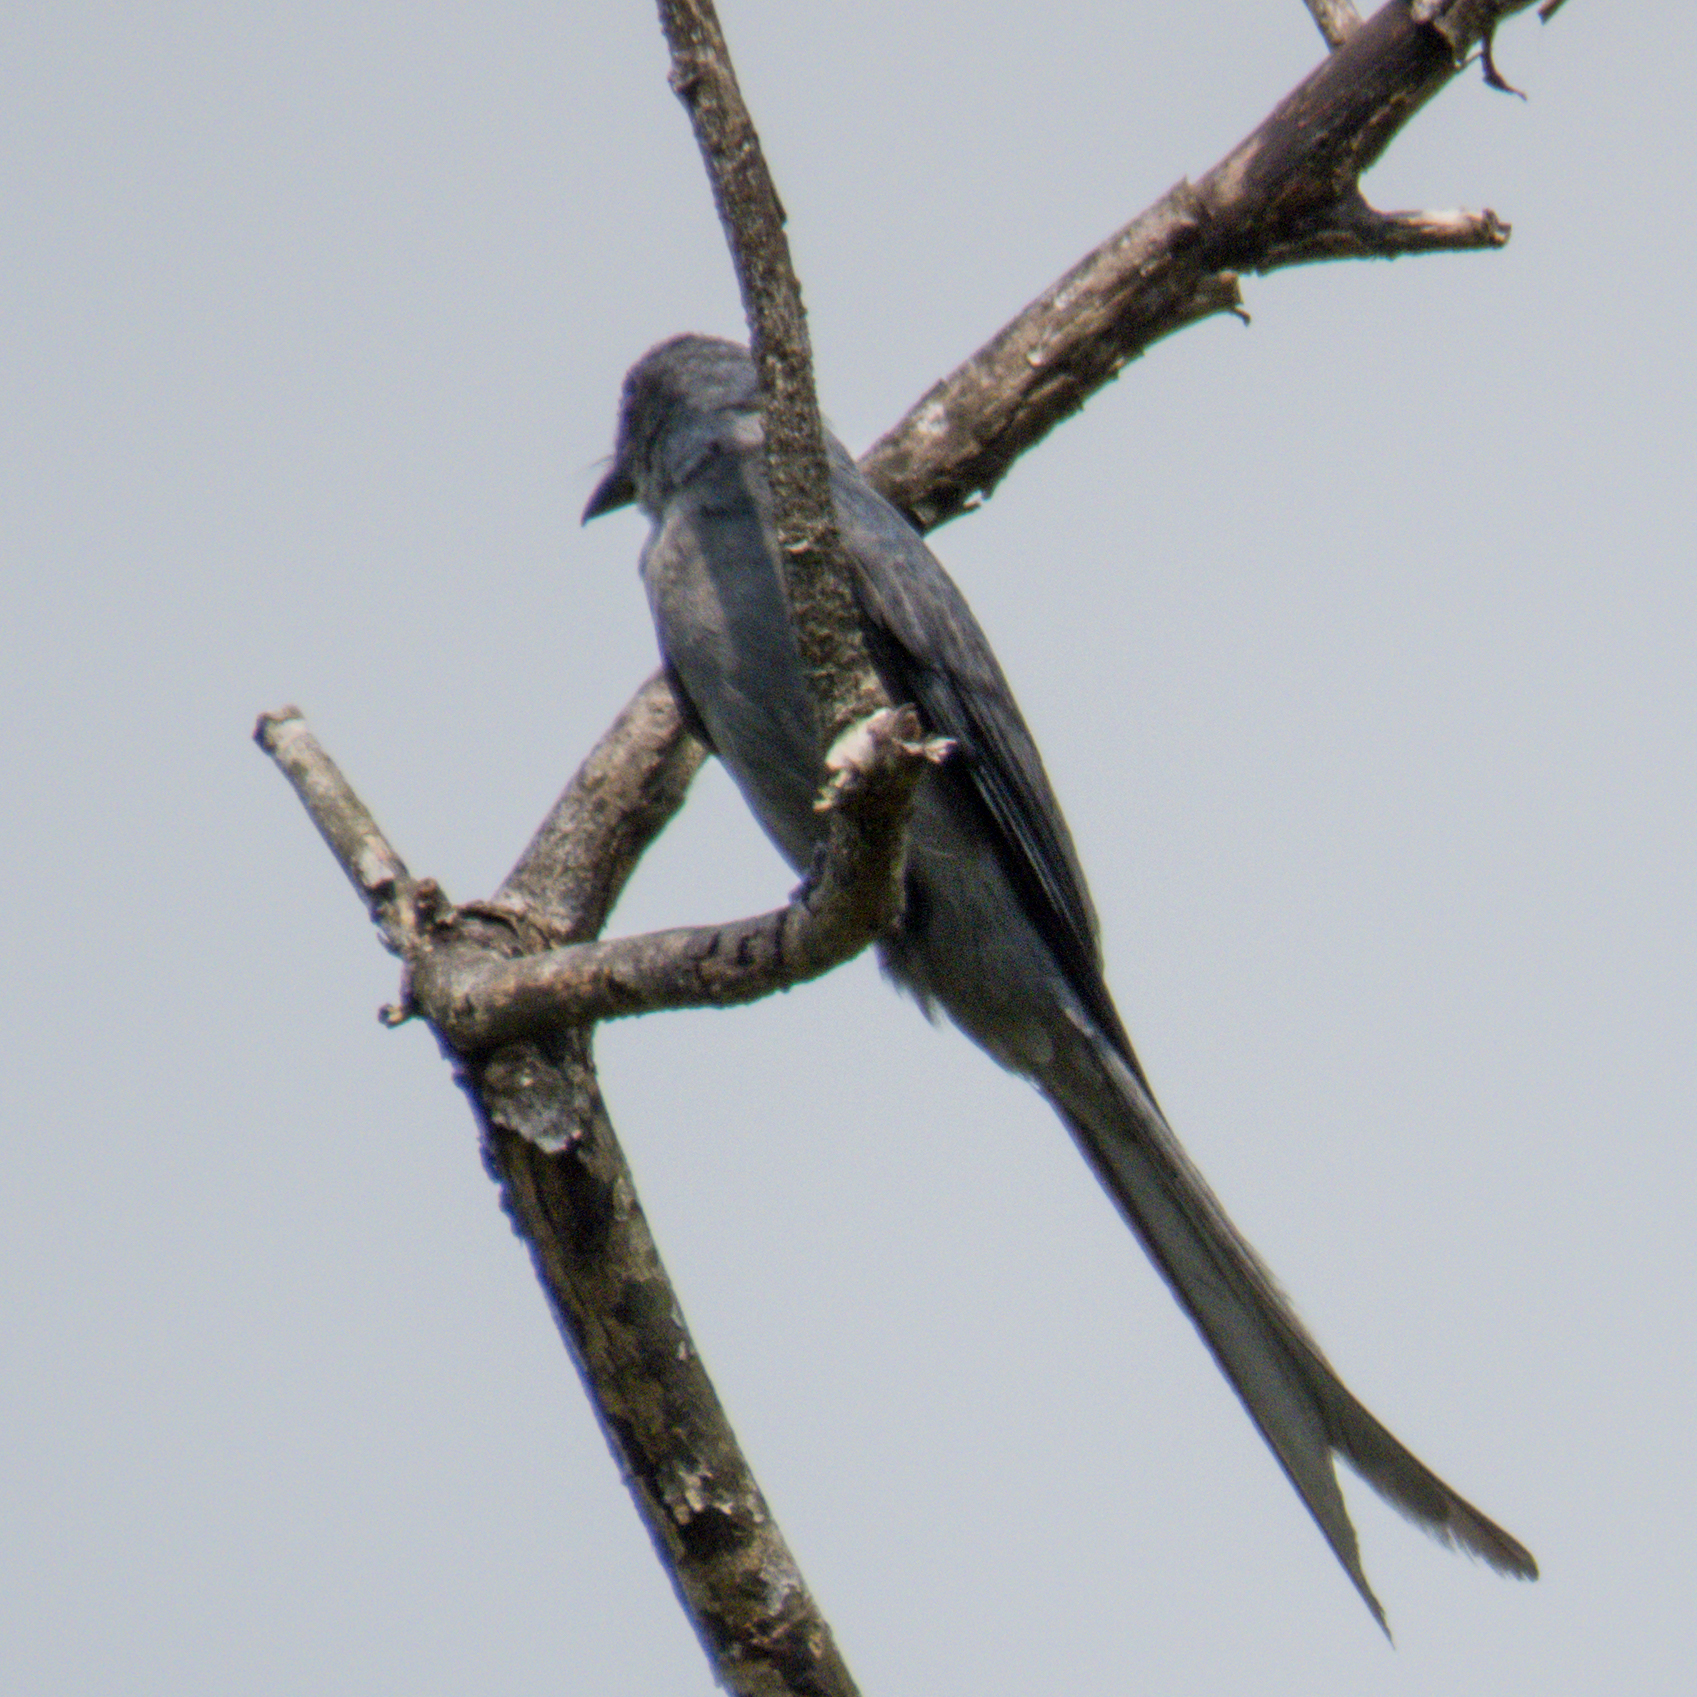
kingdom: Animalia
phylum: Chordata
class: Aves
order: Passeriformes
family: Dicruridae
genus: Dicrurus
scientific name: Dicrurus leucophaeus
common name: Ashy drongo
